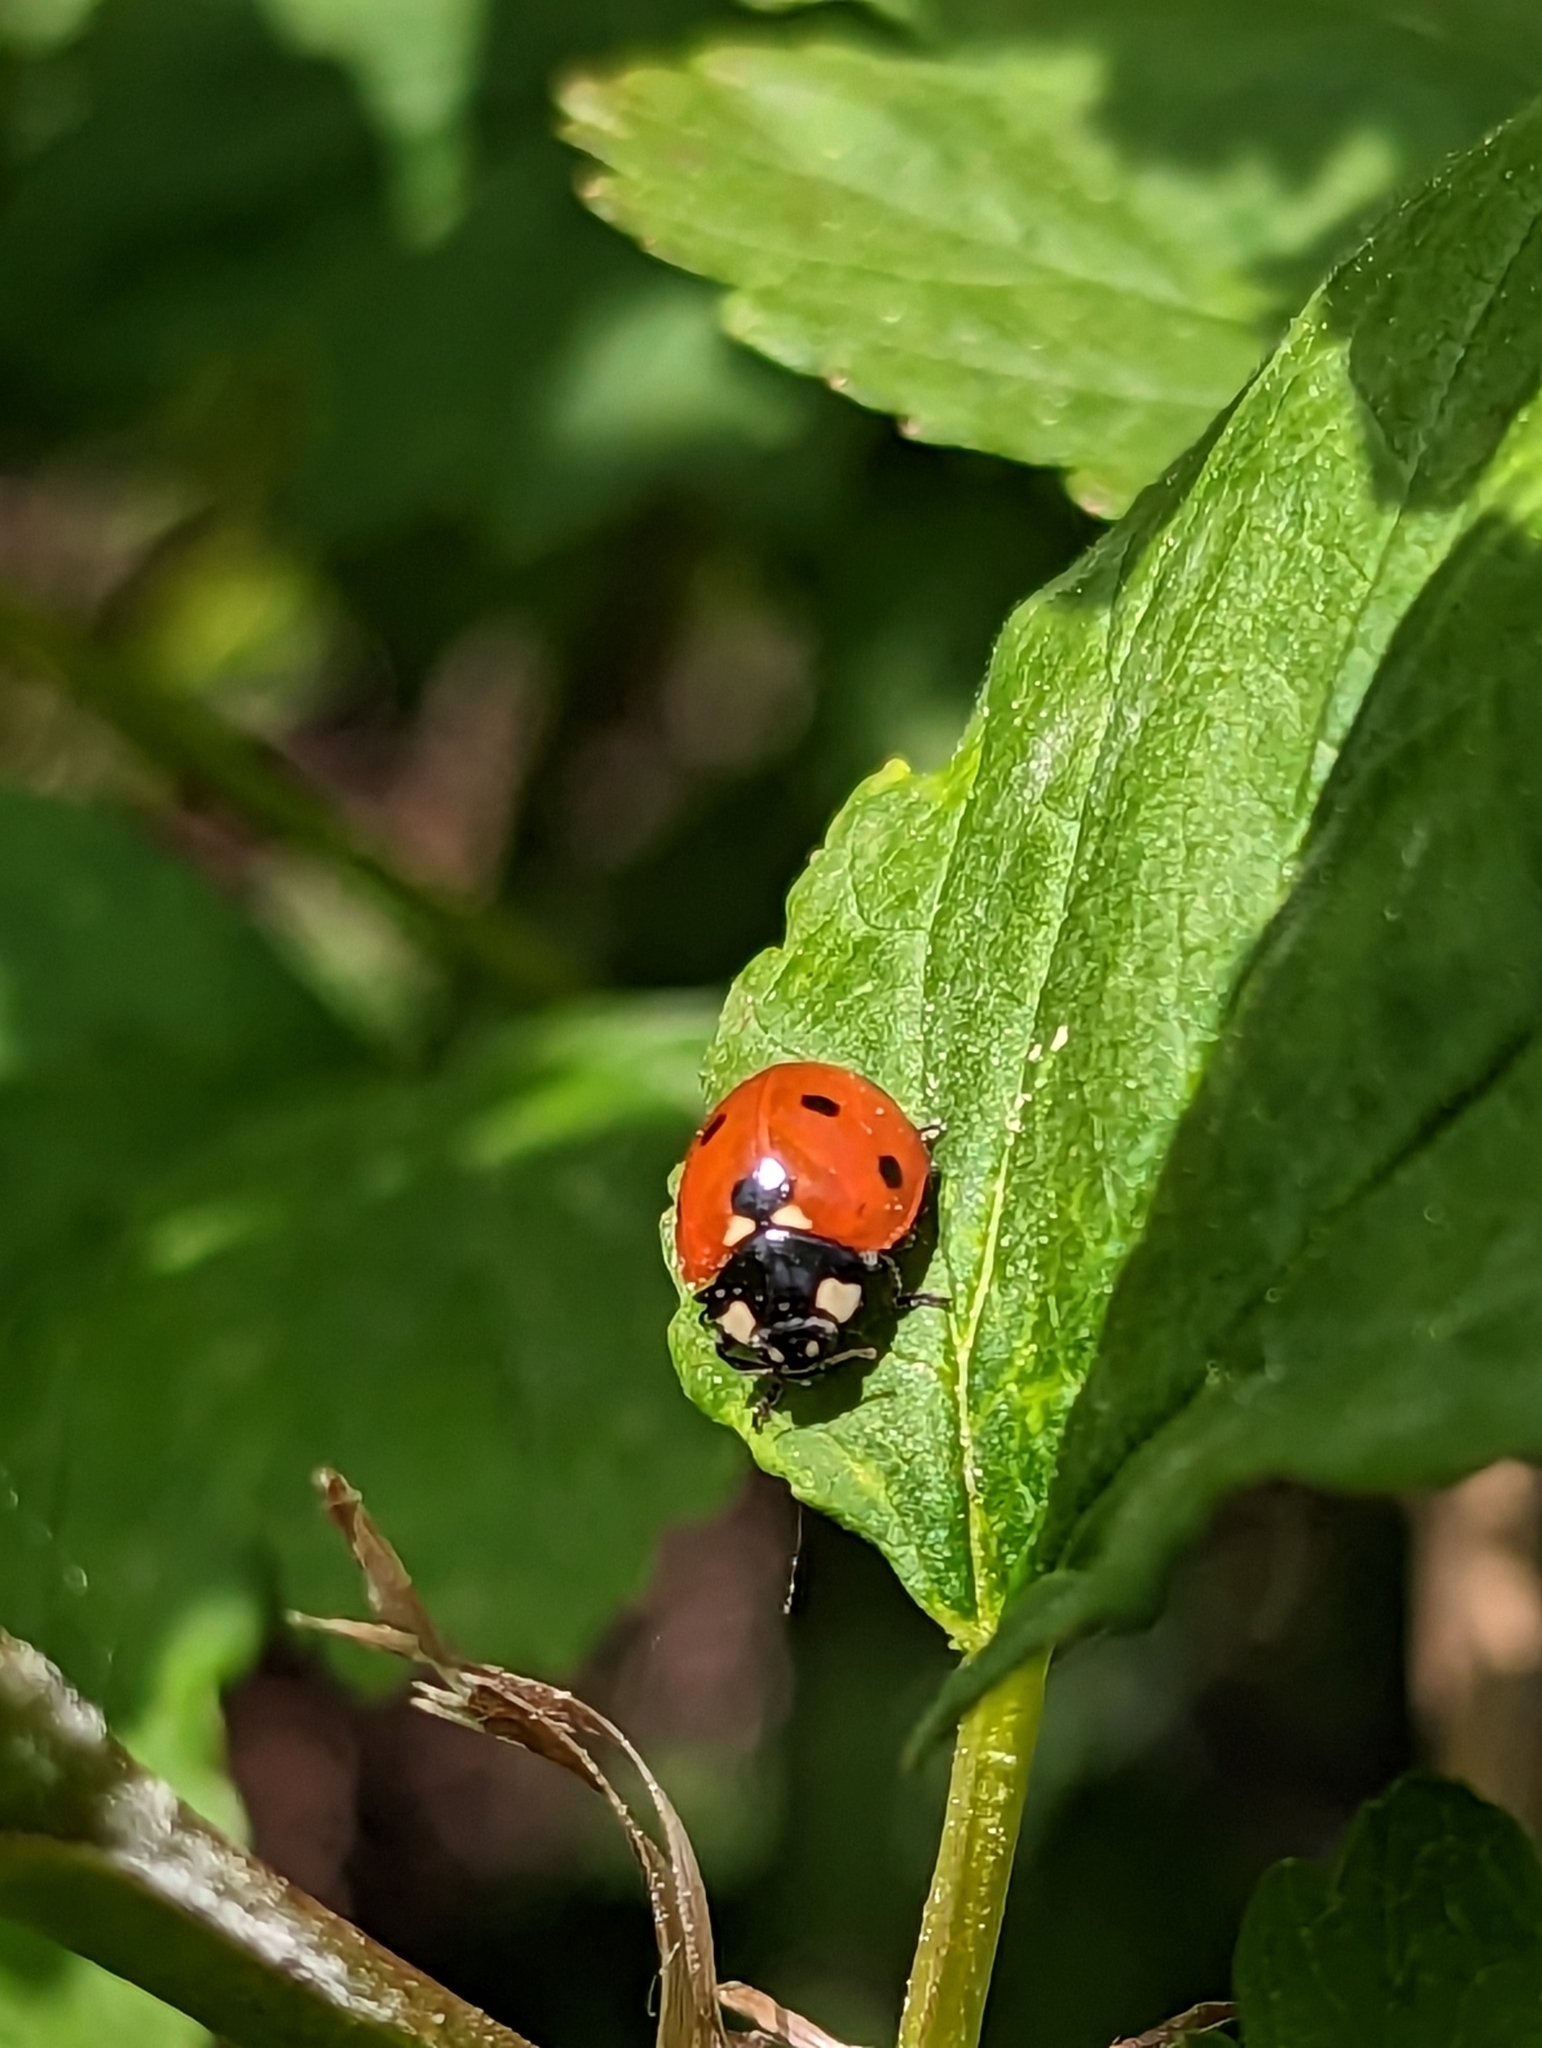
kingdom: Animalia
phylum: Arthropoda
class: Insecta
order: Coleoptera
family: Coccinellidae
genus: Coccinella
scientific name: Coccinella septempunctata
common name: Sevenspotted lady beetle
